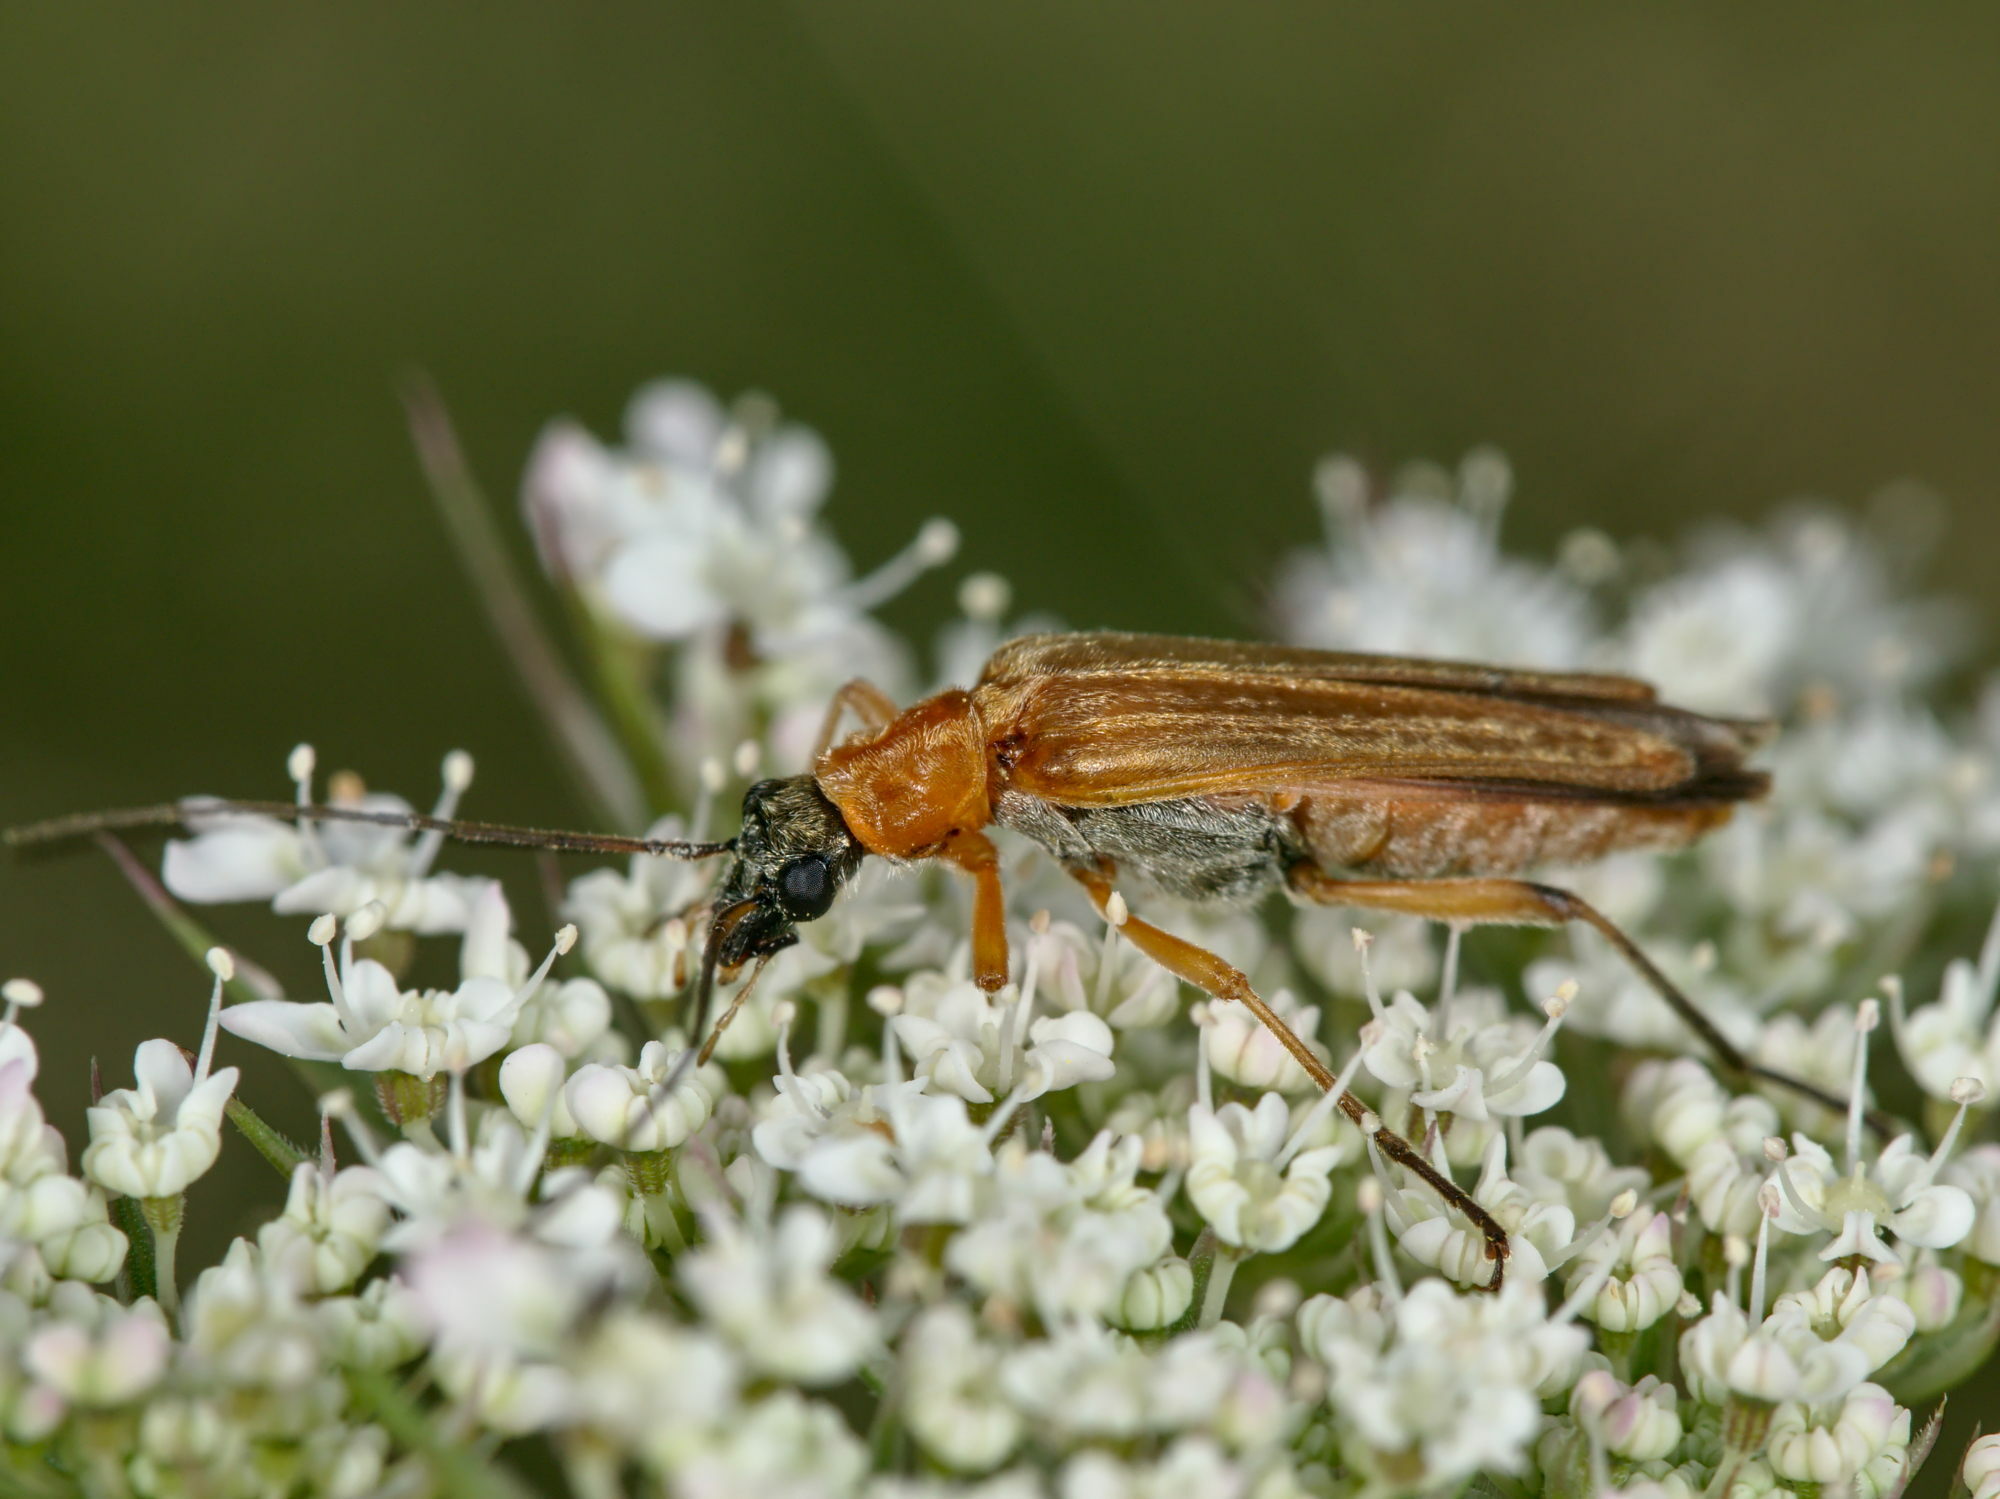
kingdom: Animalia
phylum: Arthropoda
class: Insecta
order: Coleoptera
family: Oedemeridae
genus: Oedemera
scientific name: Oedemera podagrariae
